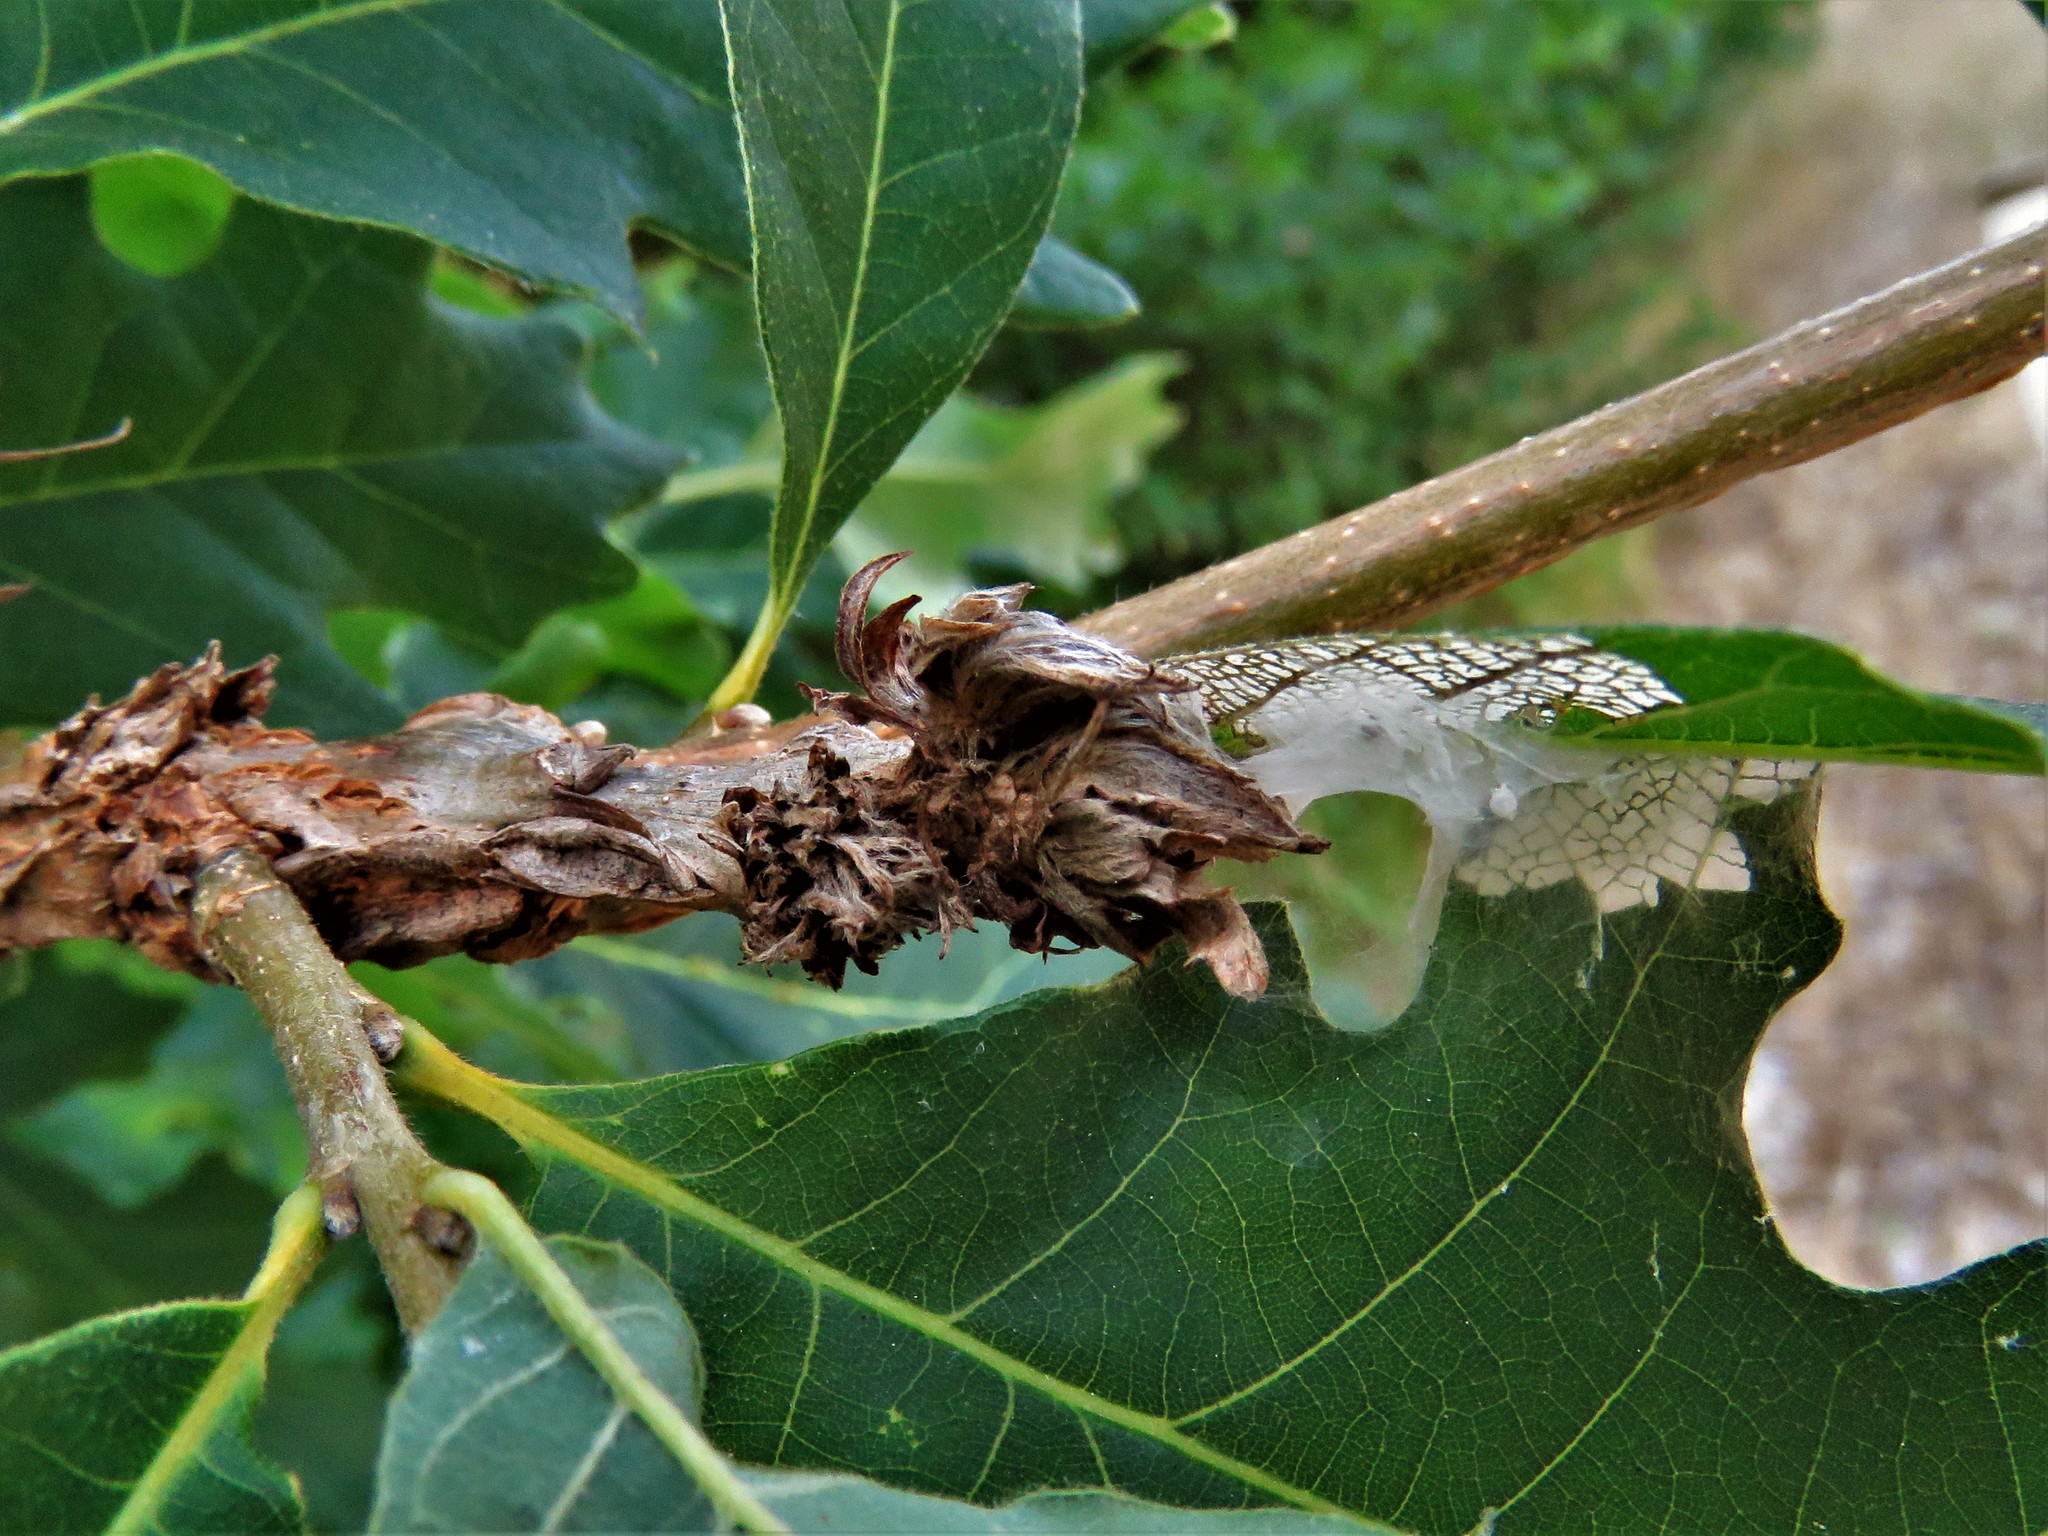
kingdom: Animalia
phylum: Arthropoda
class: Insecta
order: Hymenoptera
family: Cynipidae
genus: Andricus
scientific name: Andricus
